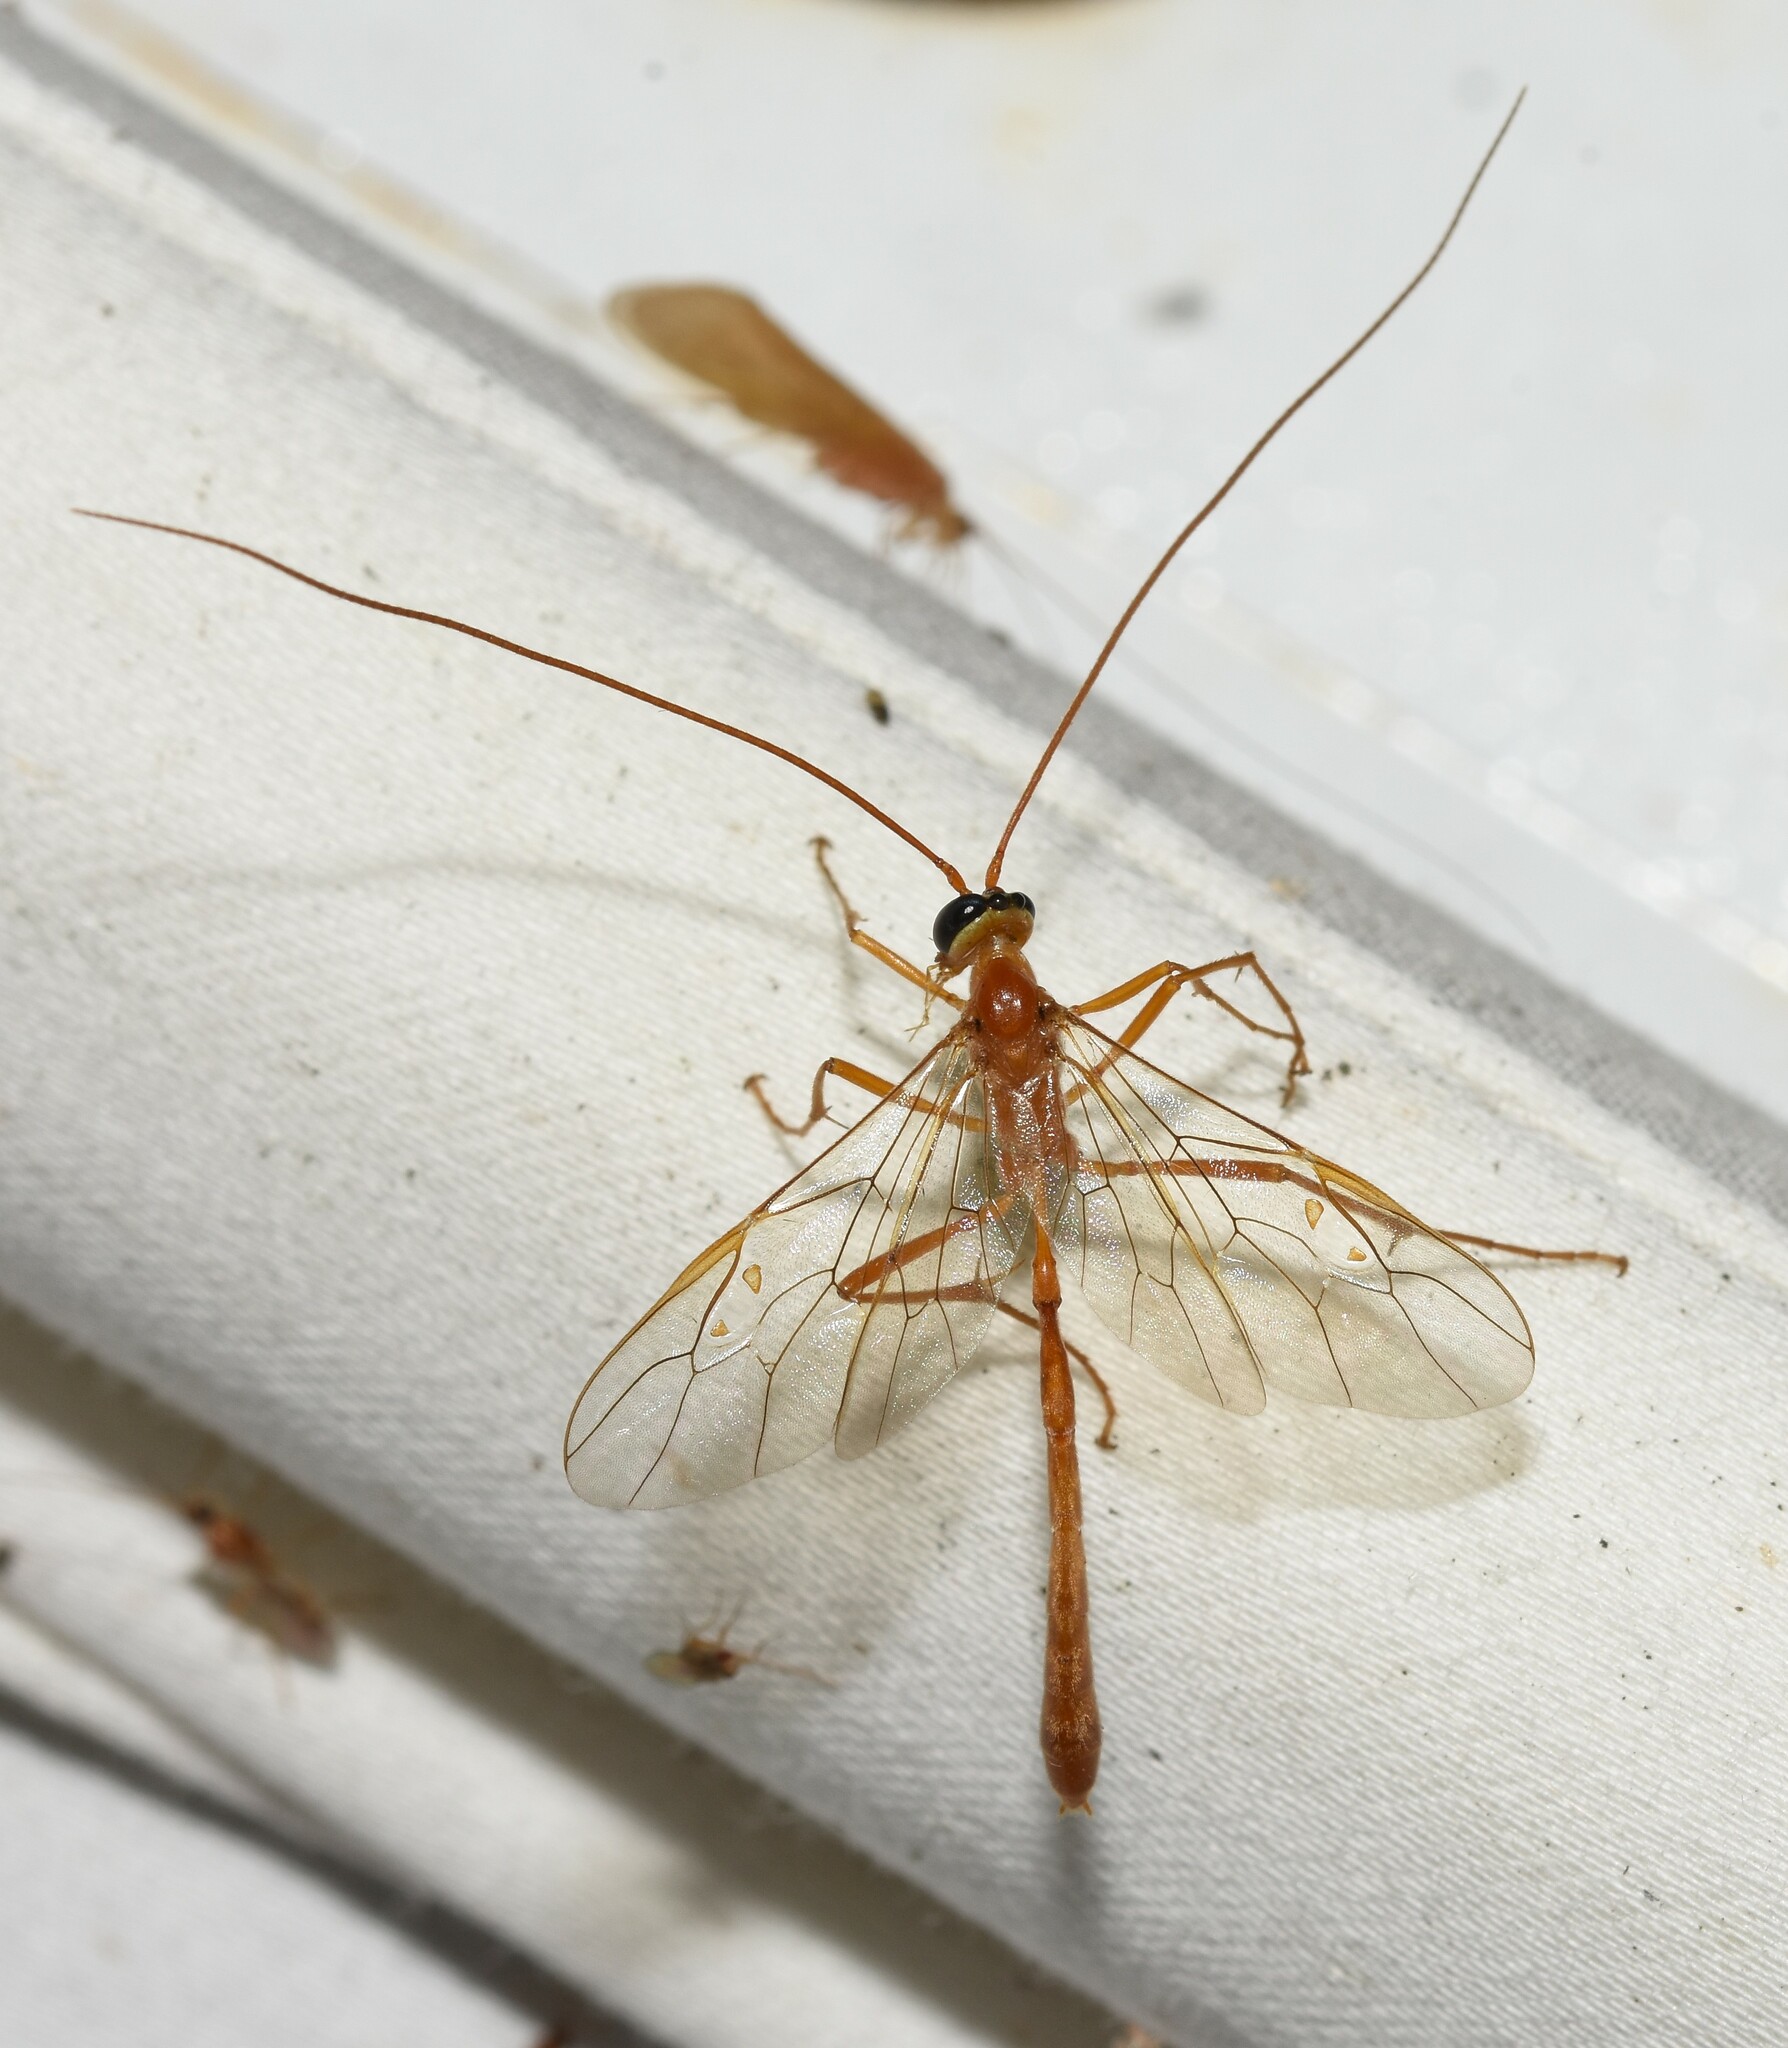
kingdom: Animalia
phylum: Arthropoda
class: Insecta
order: Hymenoptera
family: Ichneumonidae
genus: Enicospilus
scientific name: Enicospilus purgatus
